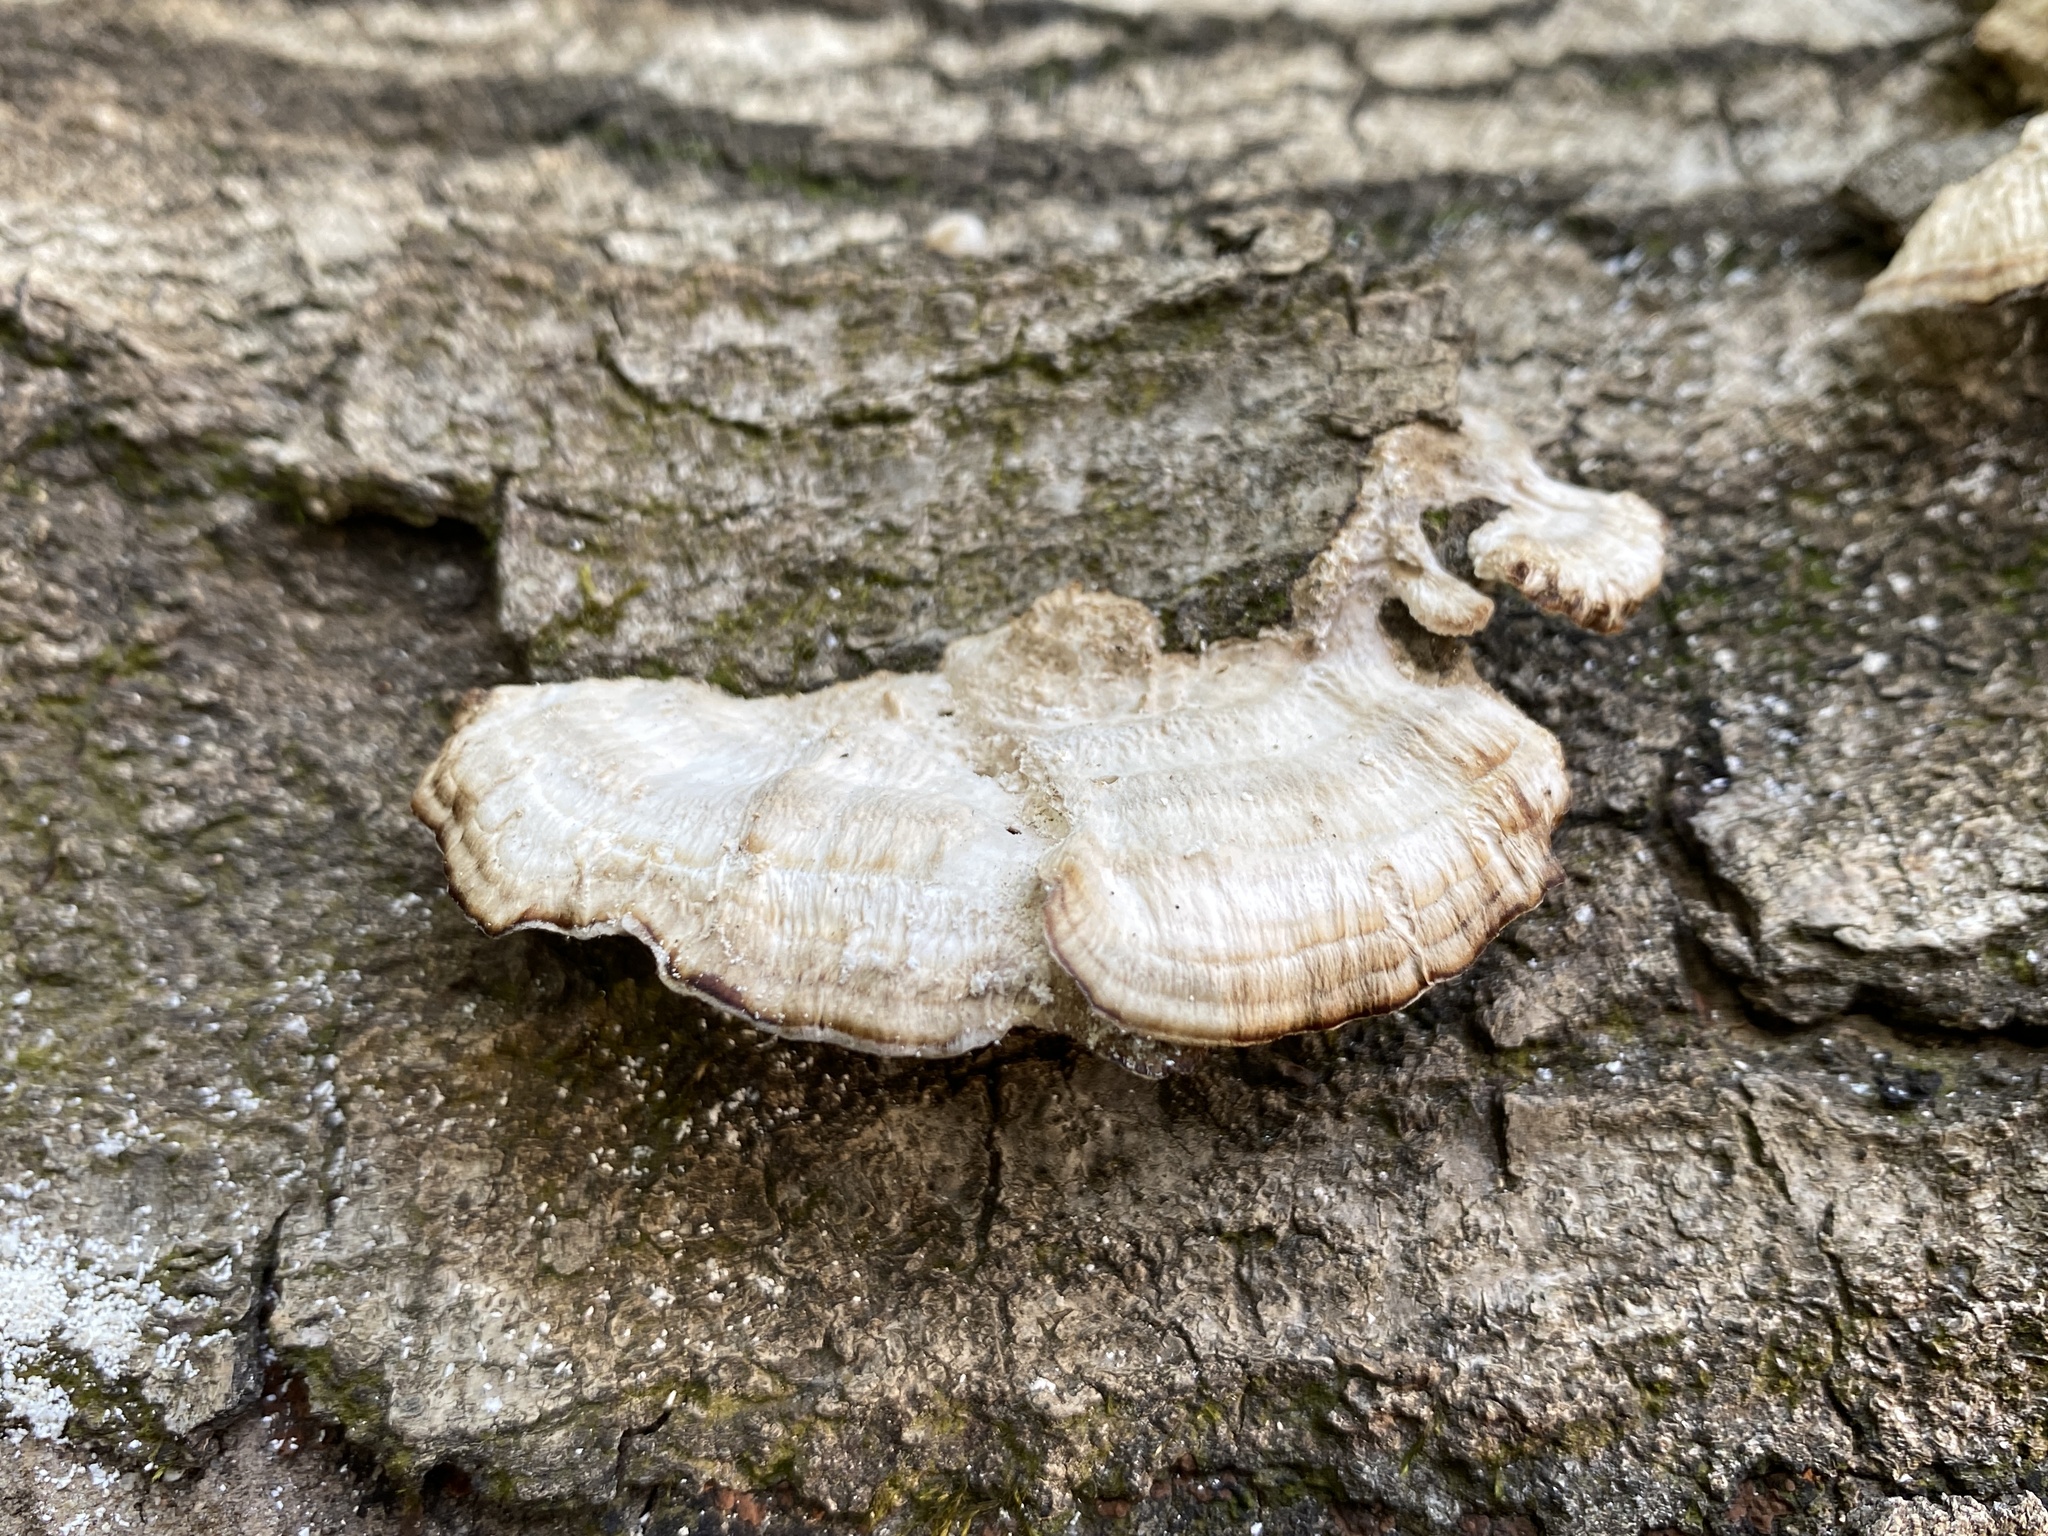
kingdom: Fungi
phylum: Basidiomycota
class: Agaricomycetes
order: Polyporales
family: Polyporaceae
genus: Trametes
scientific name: Trametes lactinea
